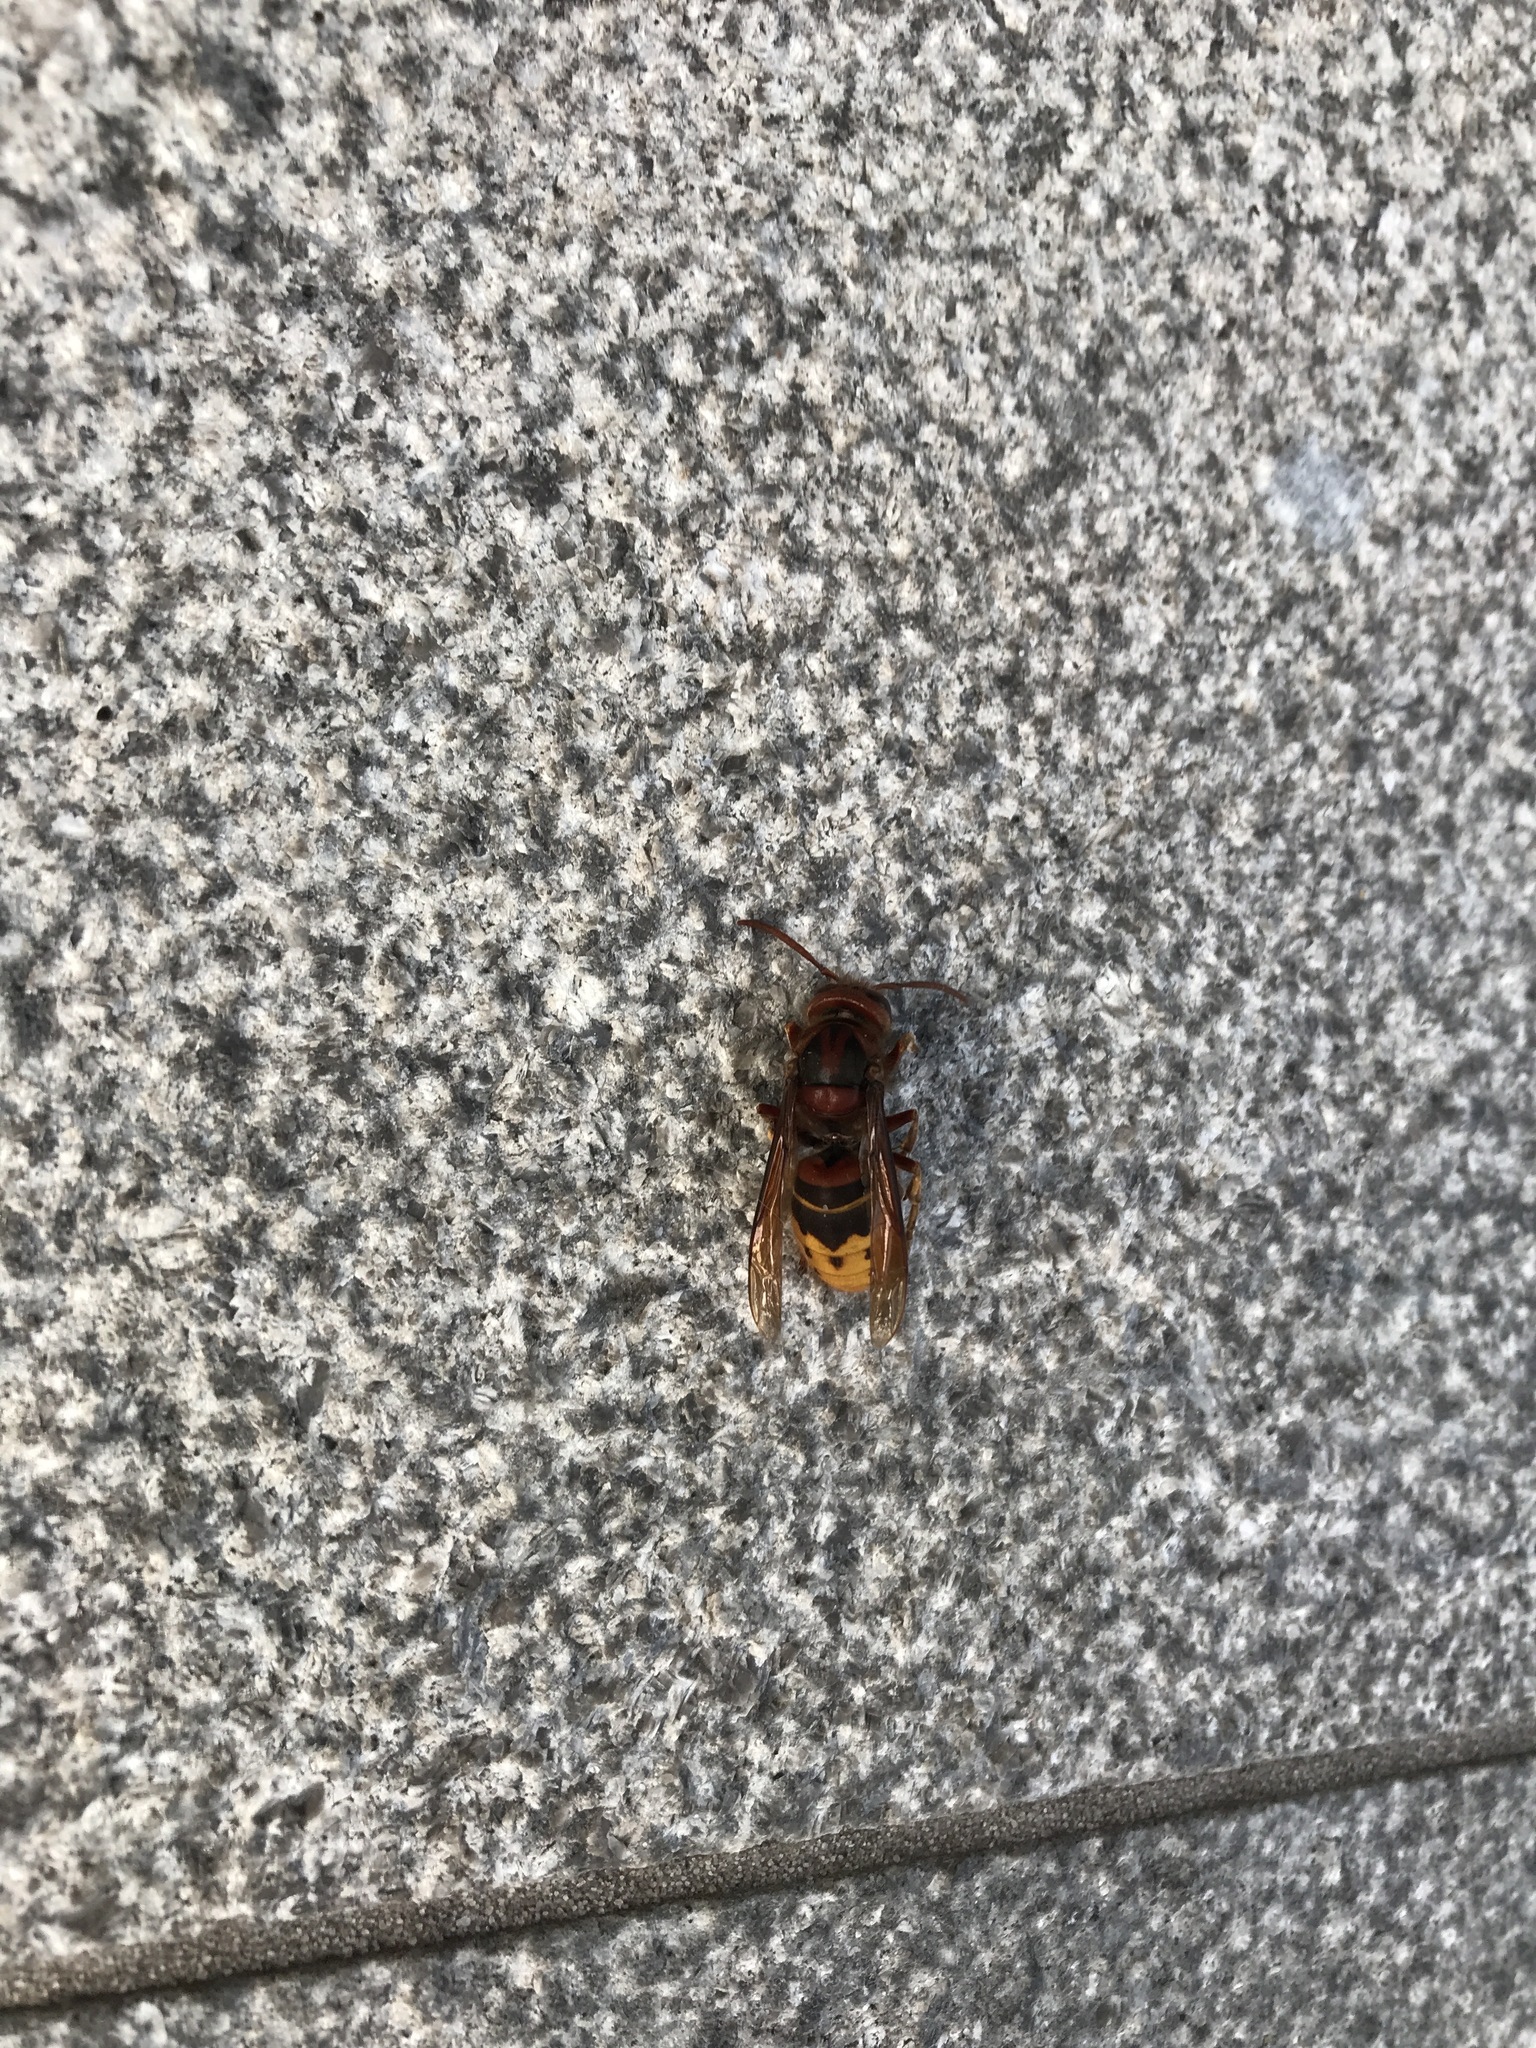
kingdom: Animalia
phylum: Arthropoda
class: Insecta
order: Hymenoptera
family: Vespidae
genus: Vespa
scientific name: Vespa crabro
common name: Hornet
